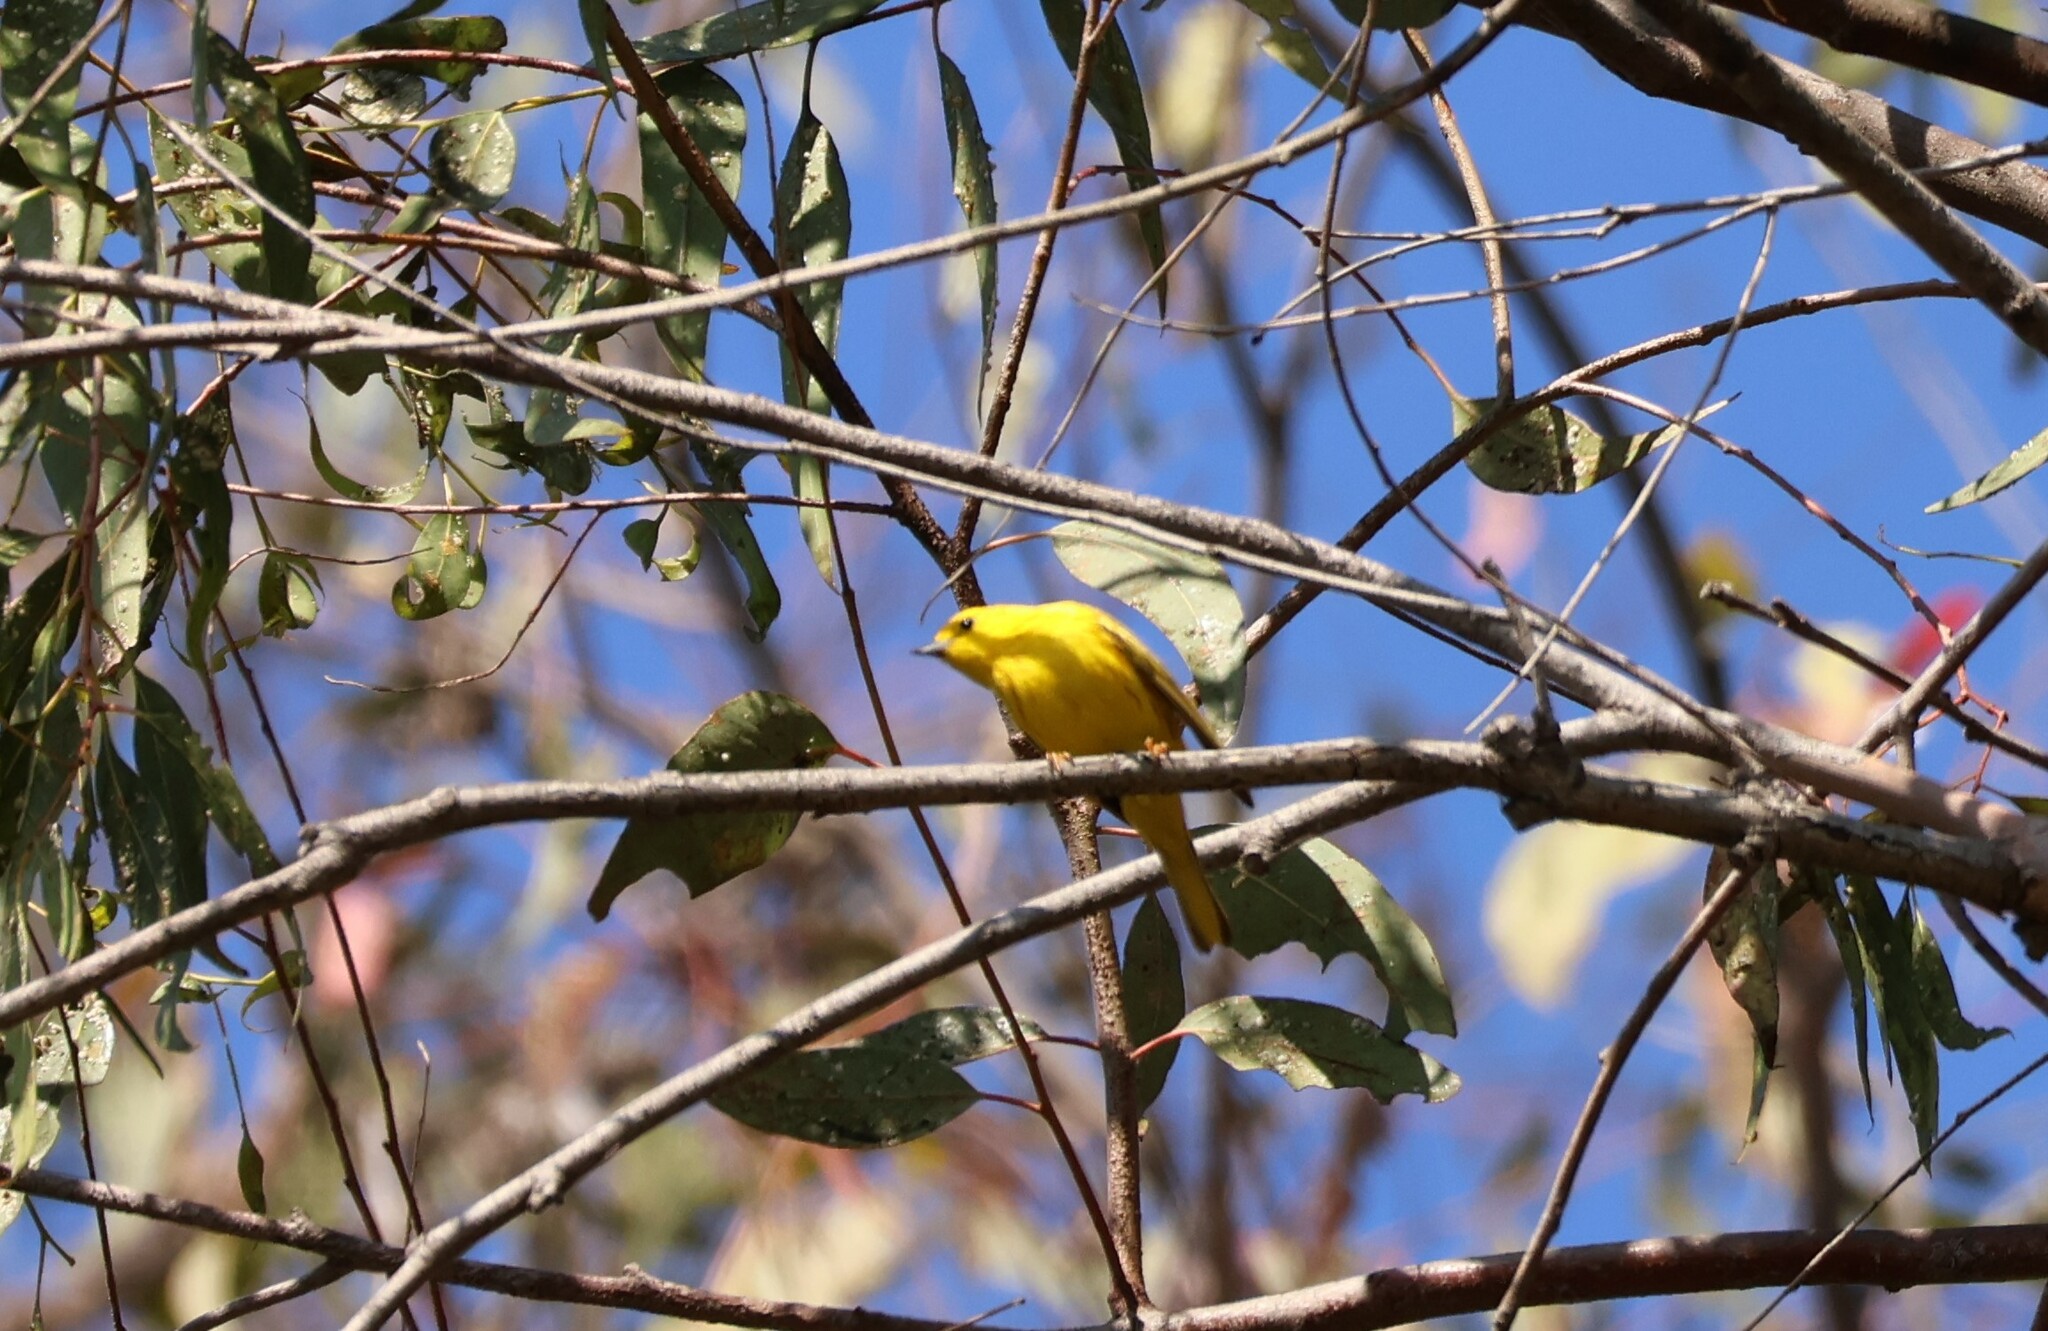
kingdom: Animalia
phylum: Chordata
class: Aves
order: Passeriformes
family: Parulidae
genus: Setophaga
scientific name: Setophaga petechia
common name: Yellow warbler
